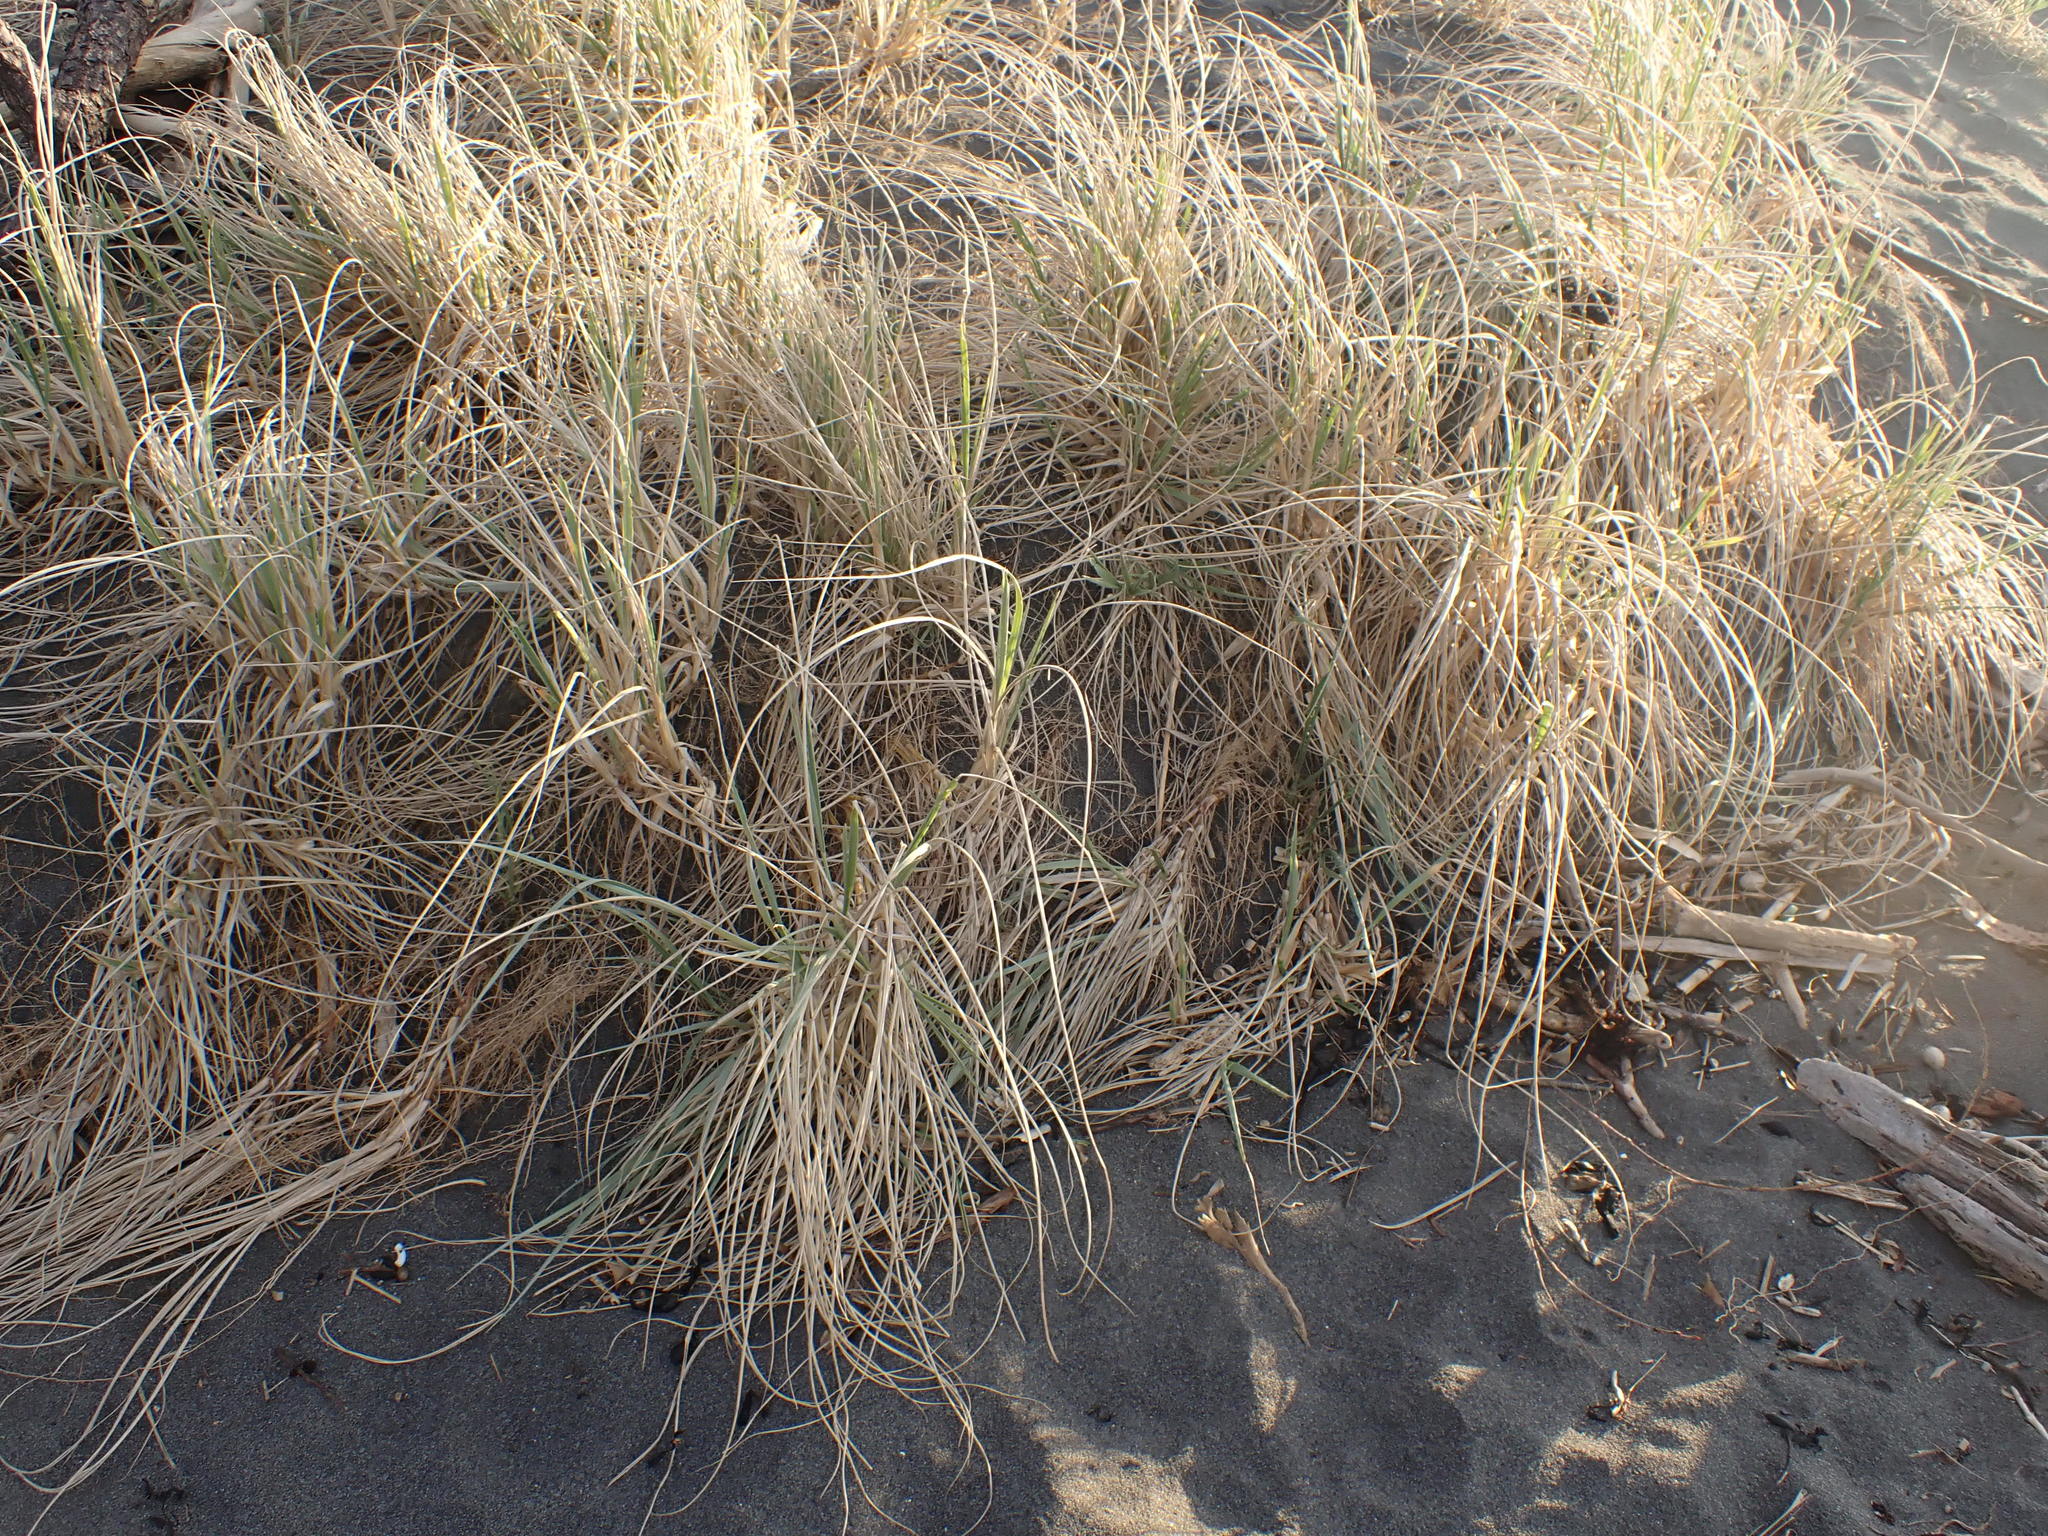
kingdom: Plantae
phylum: Tracheophyta
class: Liliopsida
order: Poales
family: Poaceae
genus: Spinifex
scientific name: Spinifex sericeus
